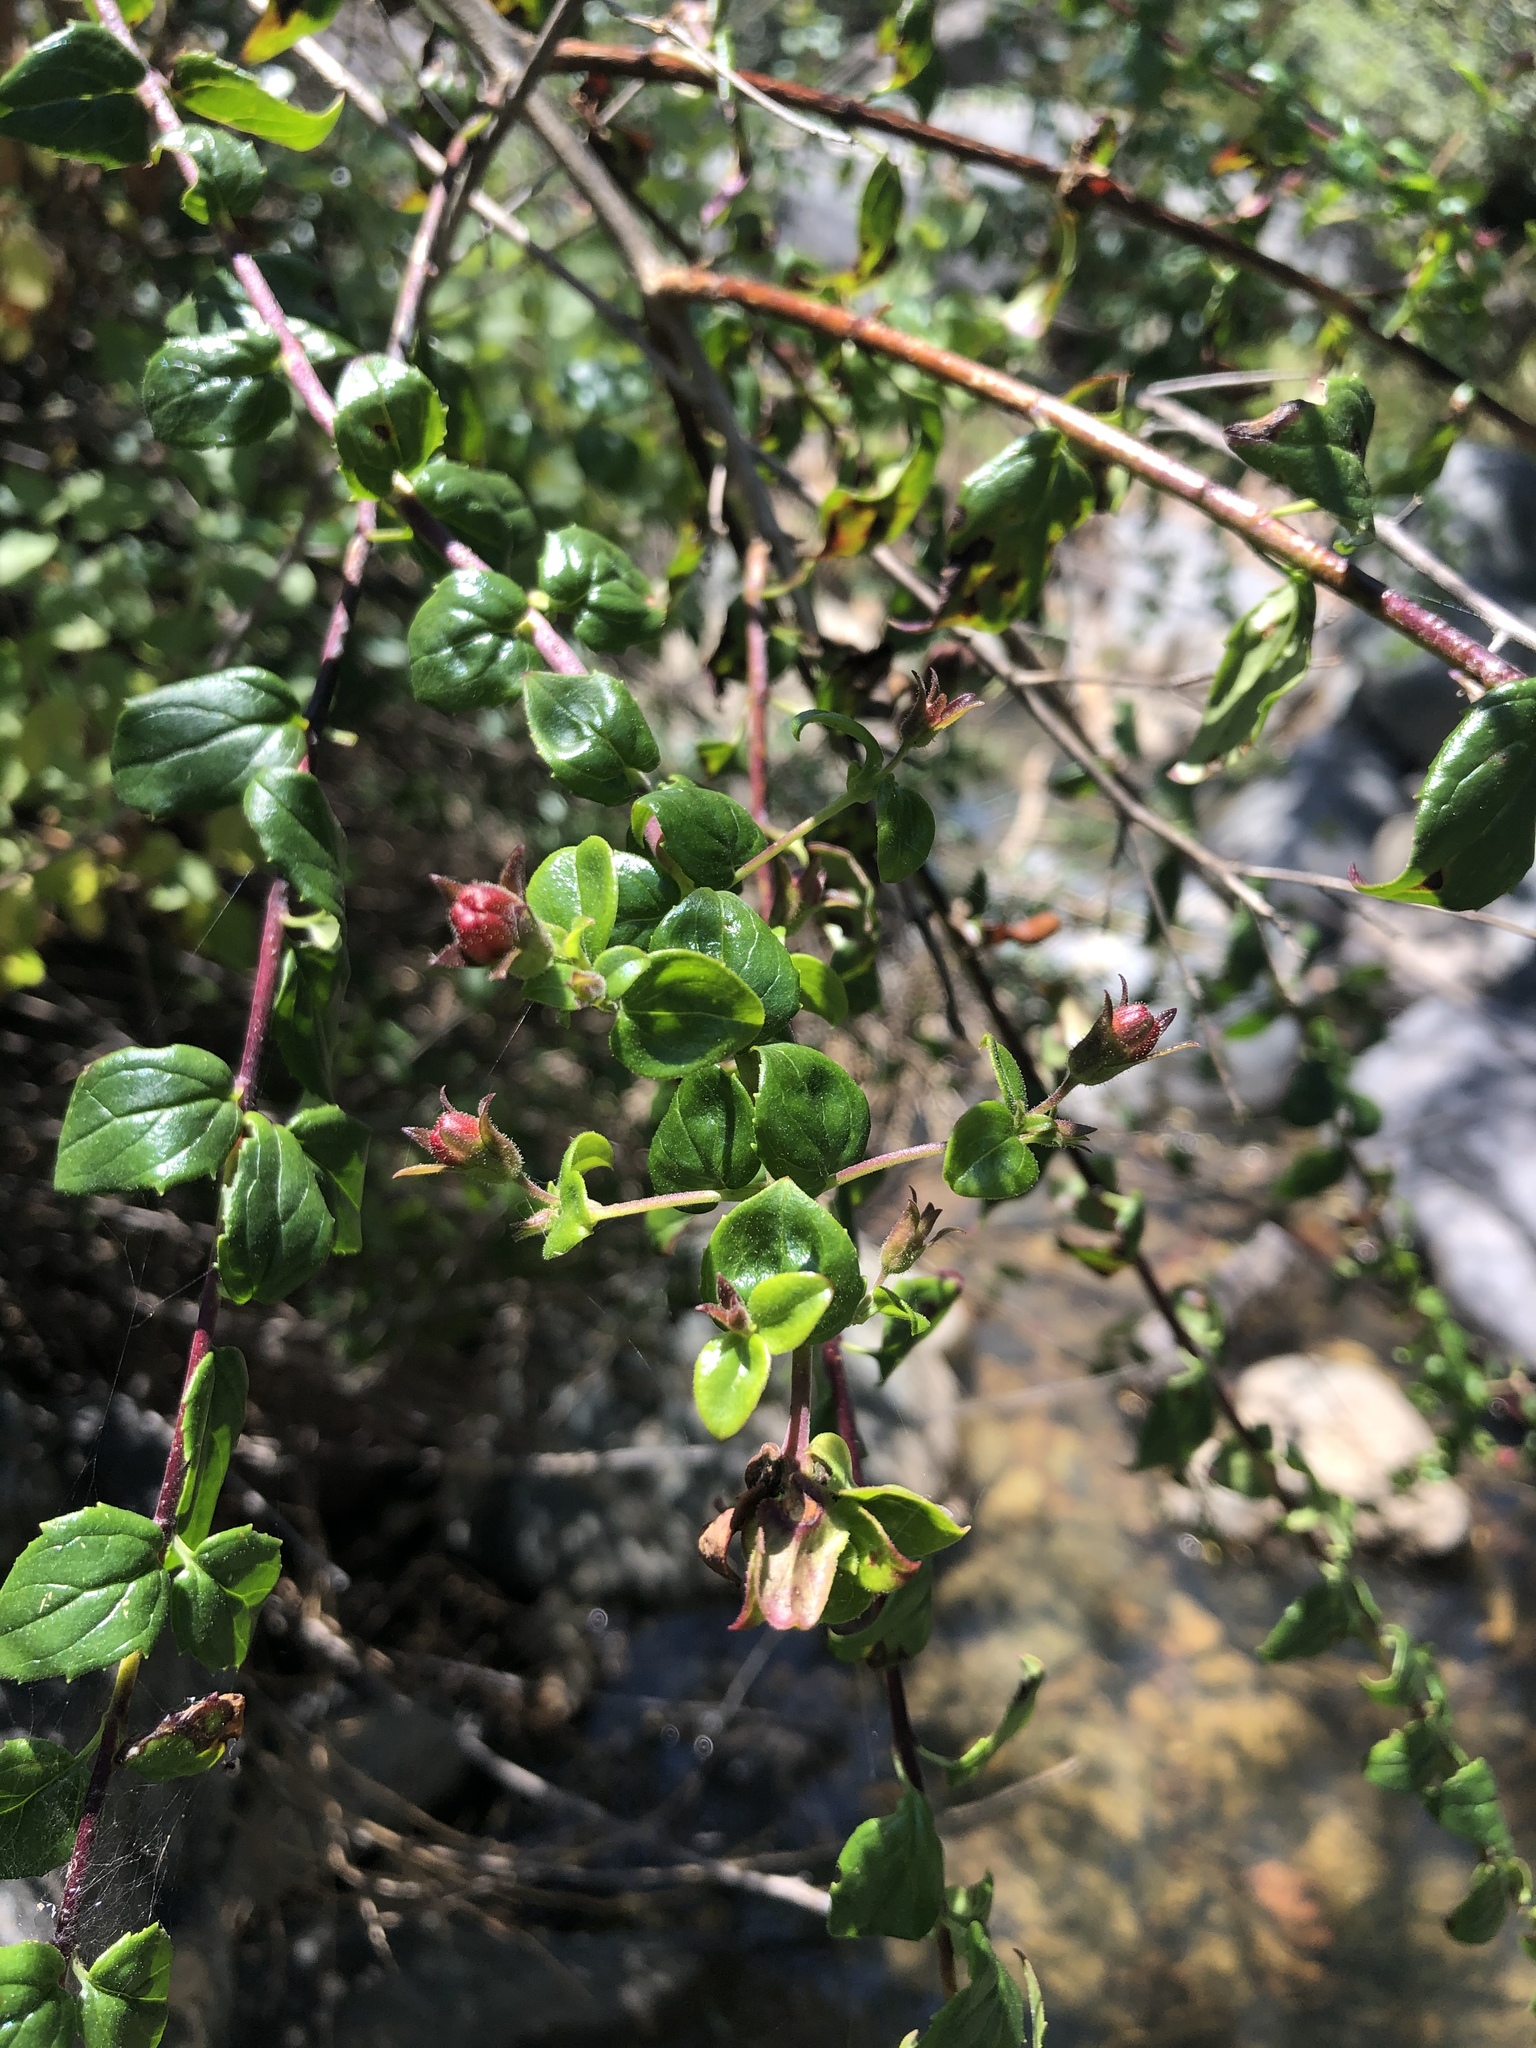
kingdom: Plantae
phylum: Tracheophyta
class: Magnoliopsida
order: Lamiales
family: Plantaginaceae
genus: Keckiella
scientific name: Keckiella cordifolia
